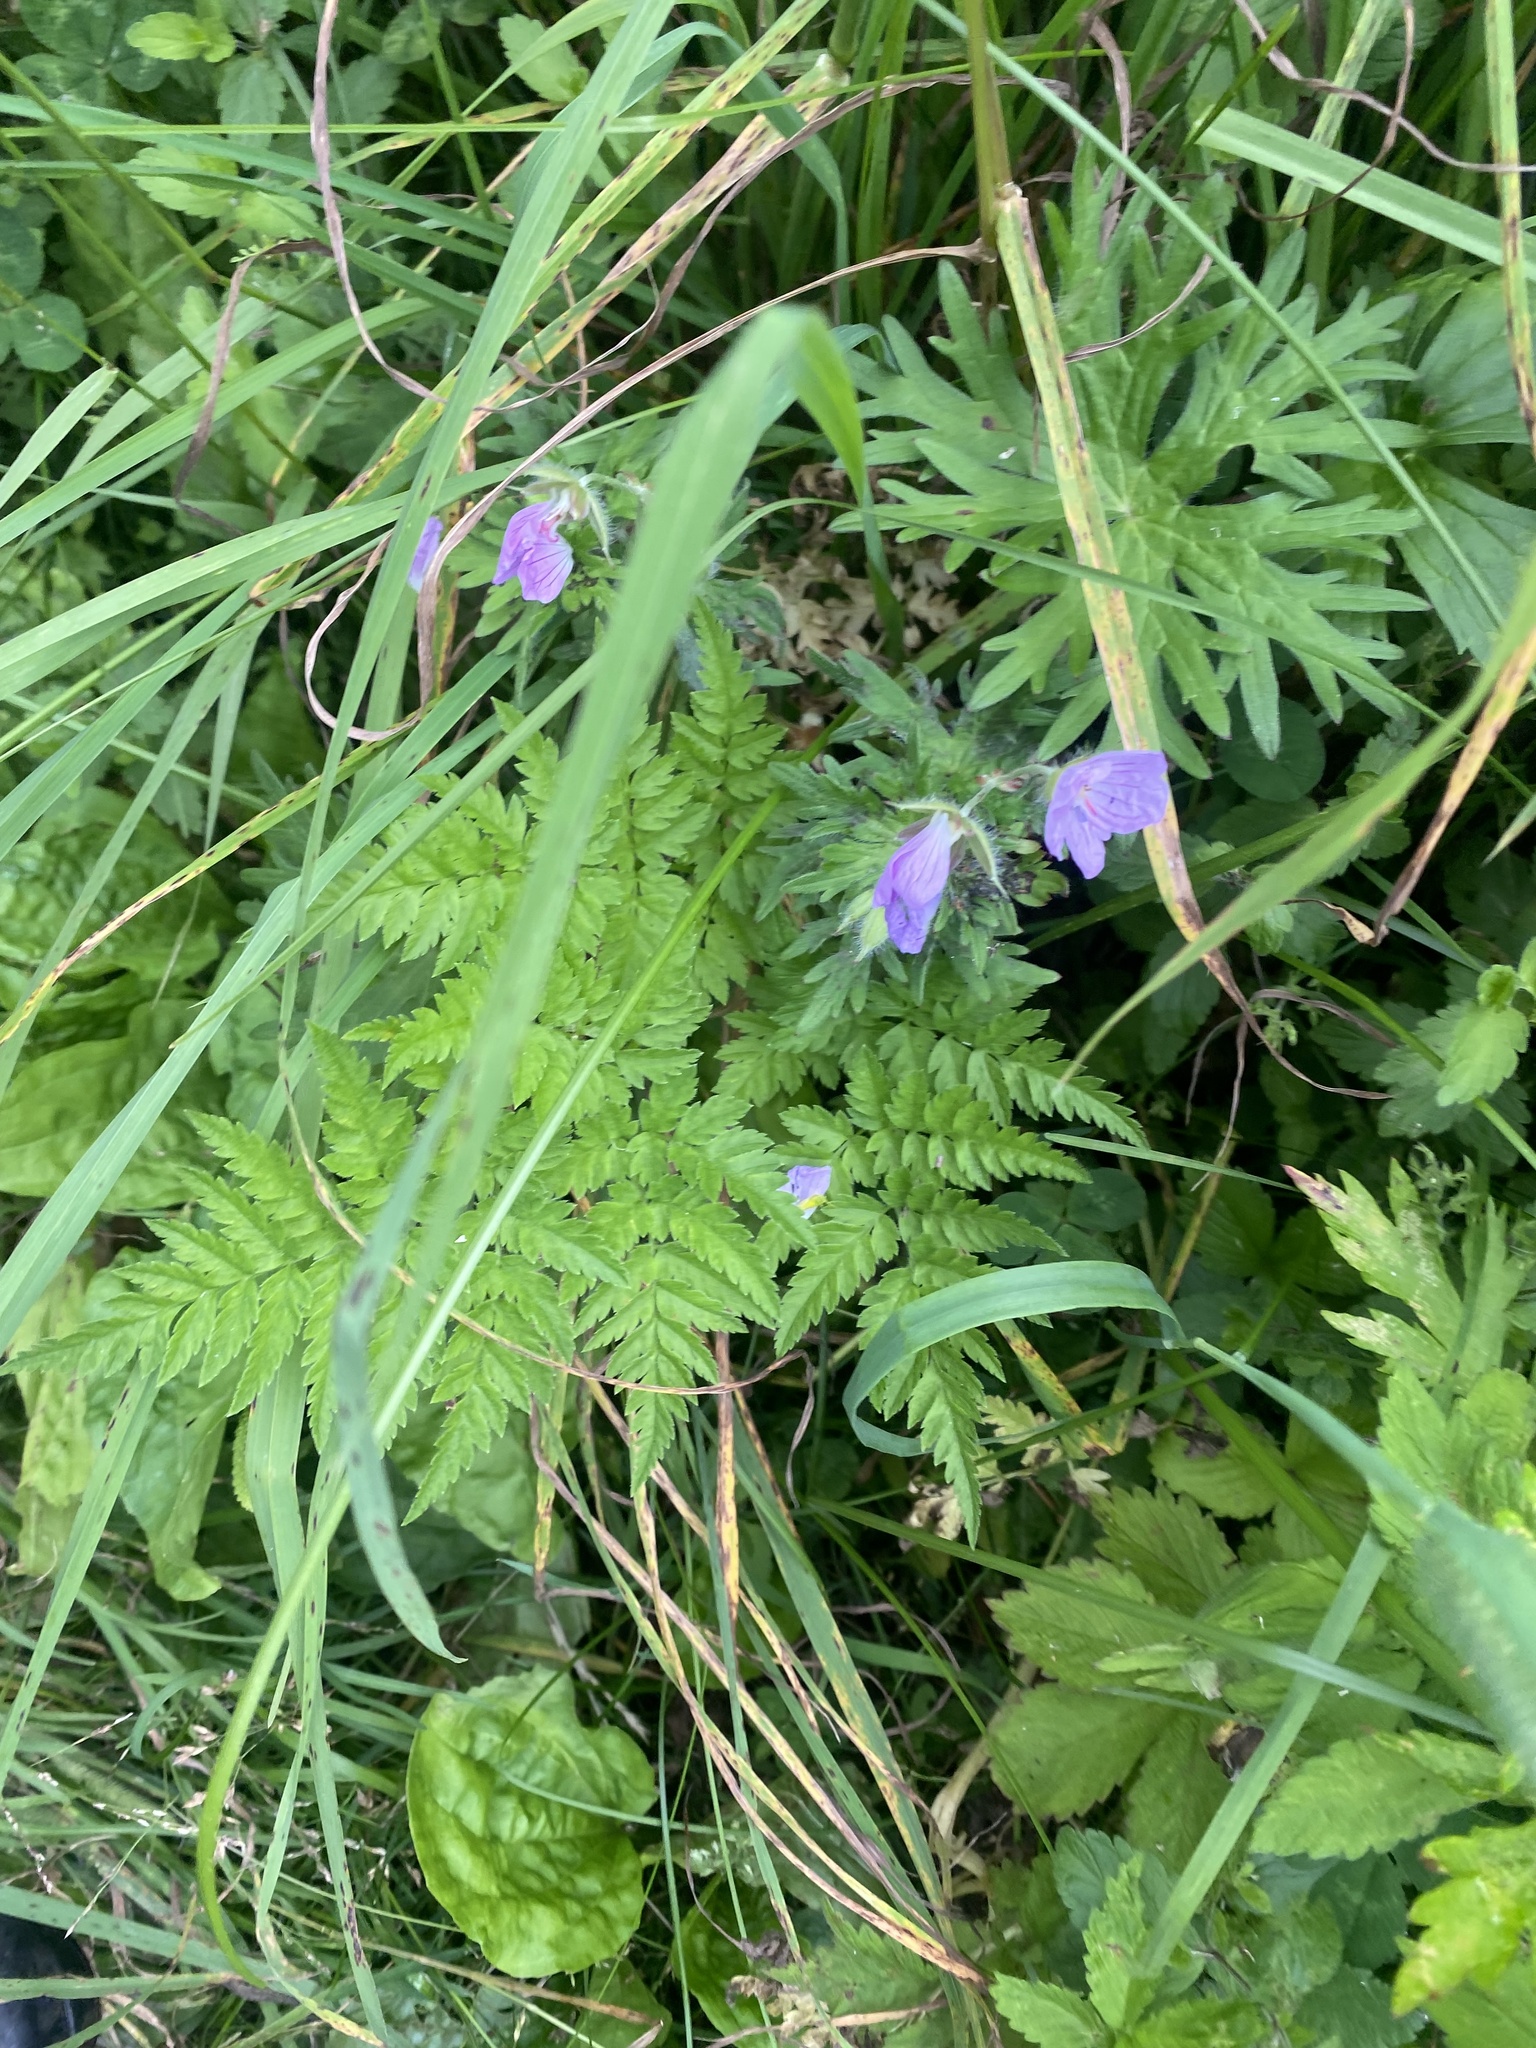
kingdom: Plantae
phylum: Tracheophyta
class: Magnoliopsida
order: Geraniales
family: Geraniaceae
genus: Geranium
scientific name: Geranium erianthum
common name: Northern crane's-bill
